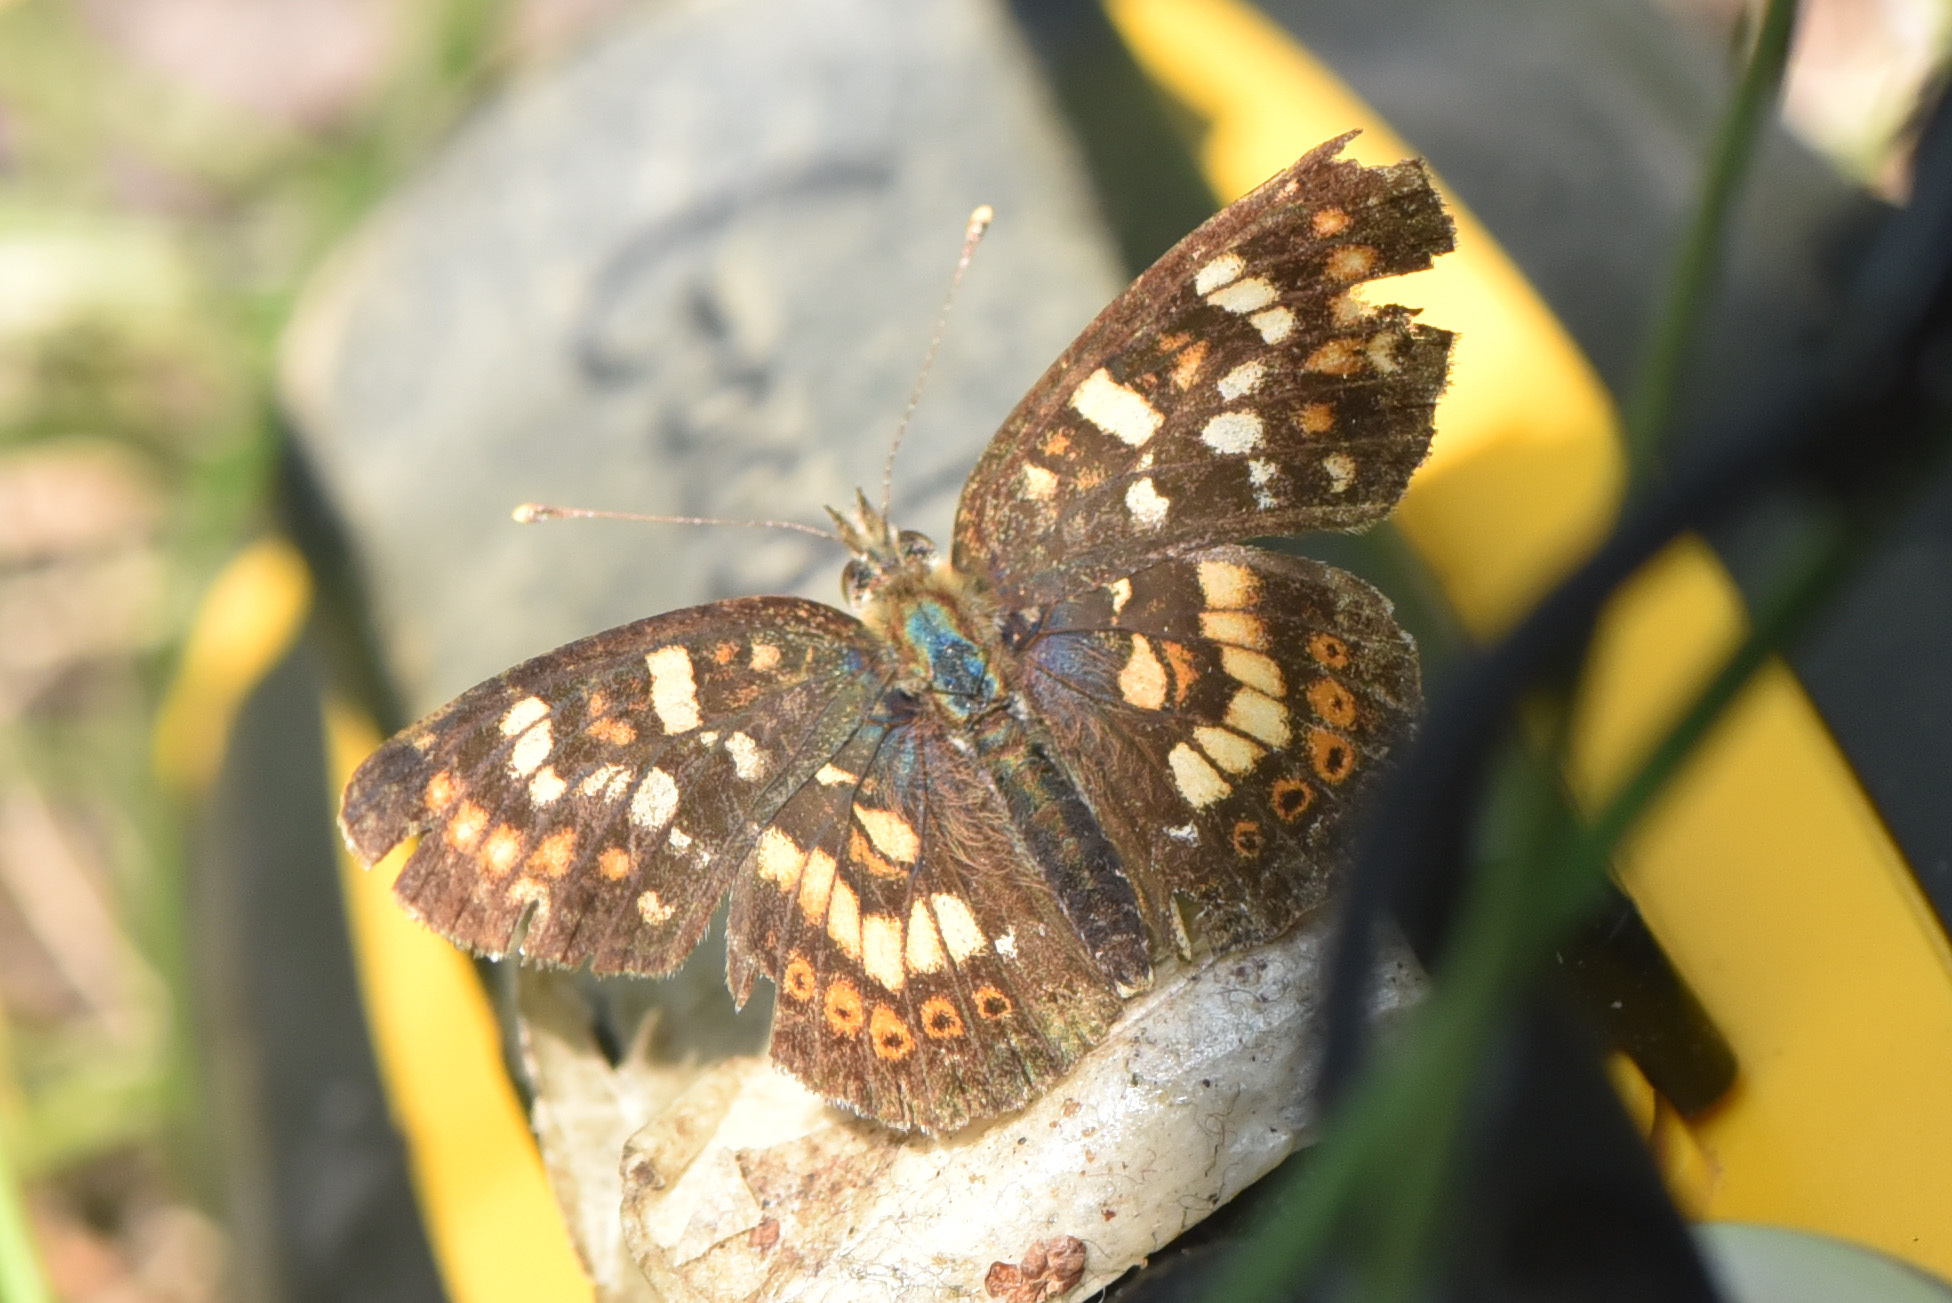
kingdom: Animalia
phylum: Arthropoda
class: Insecta
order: Lepidoptera
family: Nymphalidae
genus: Phyciodes
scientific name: Phyciodes tharos
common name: Pearl crescent
